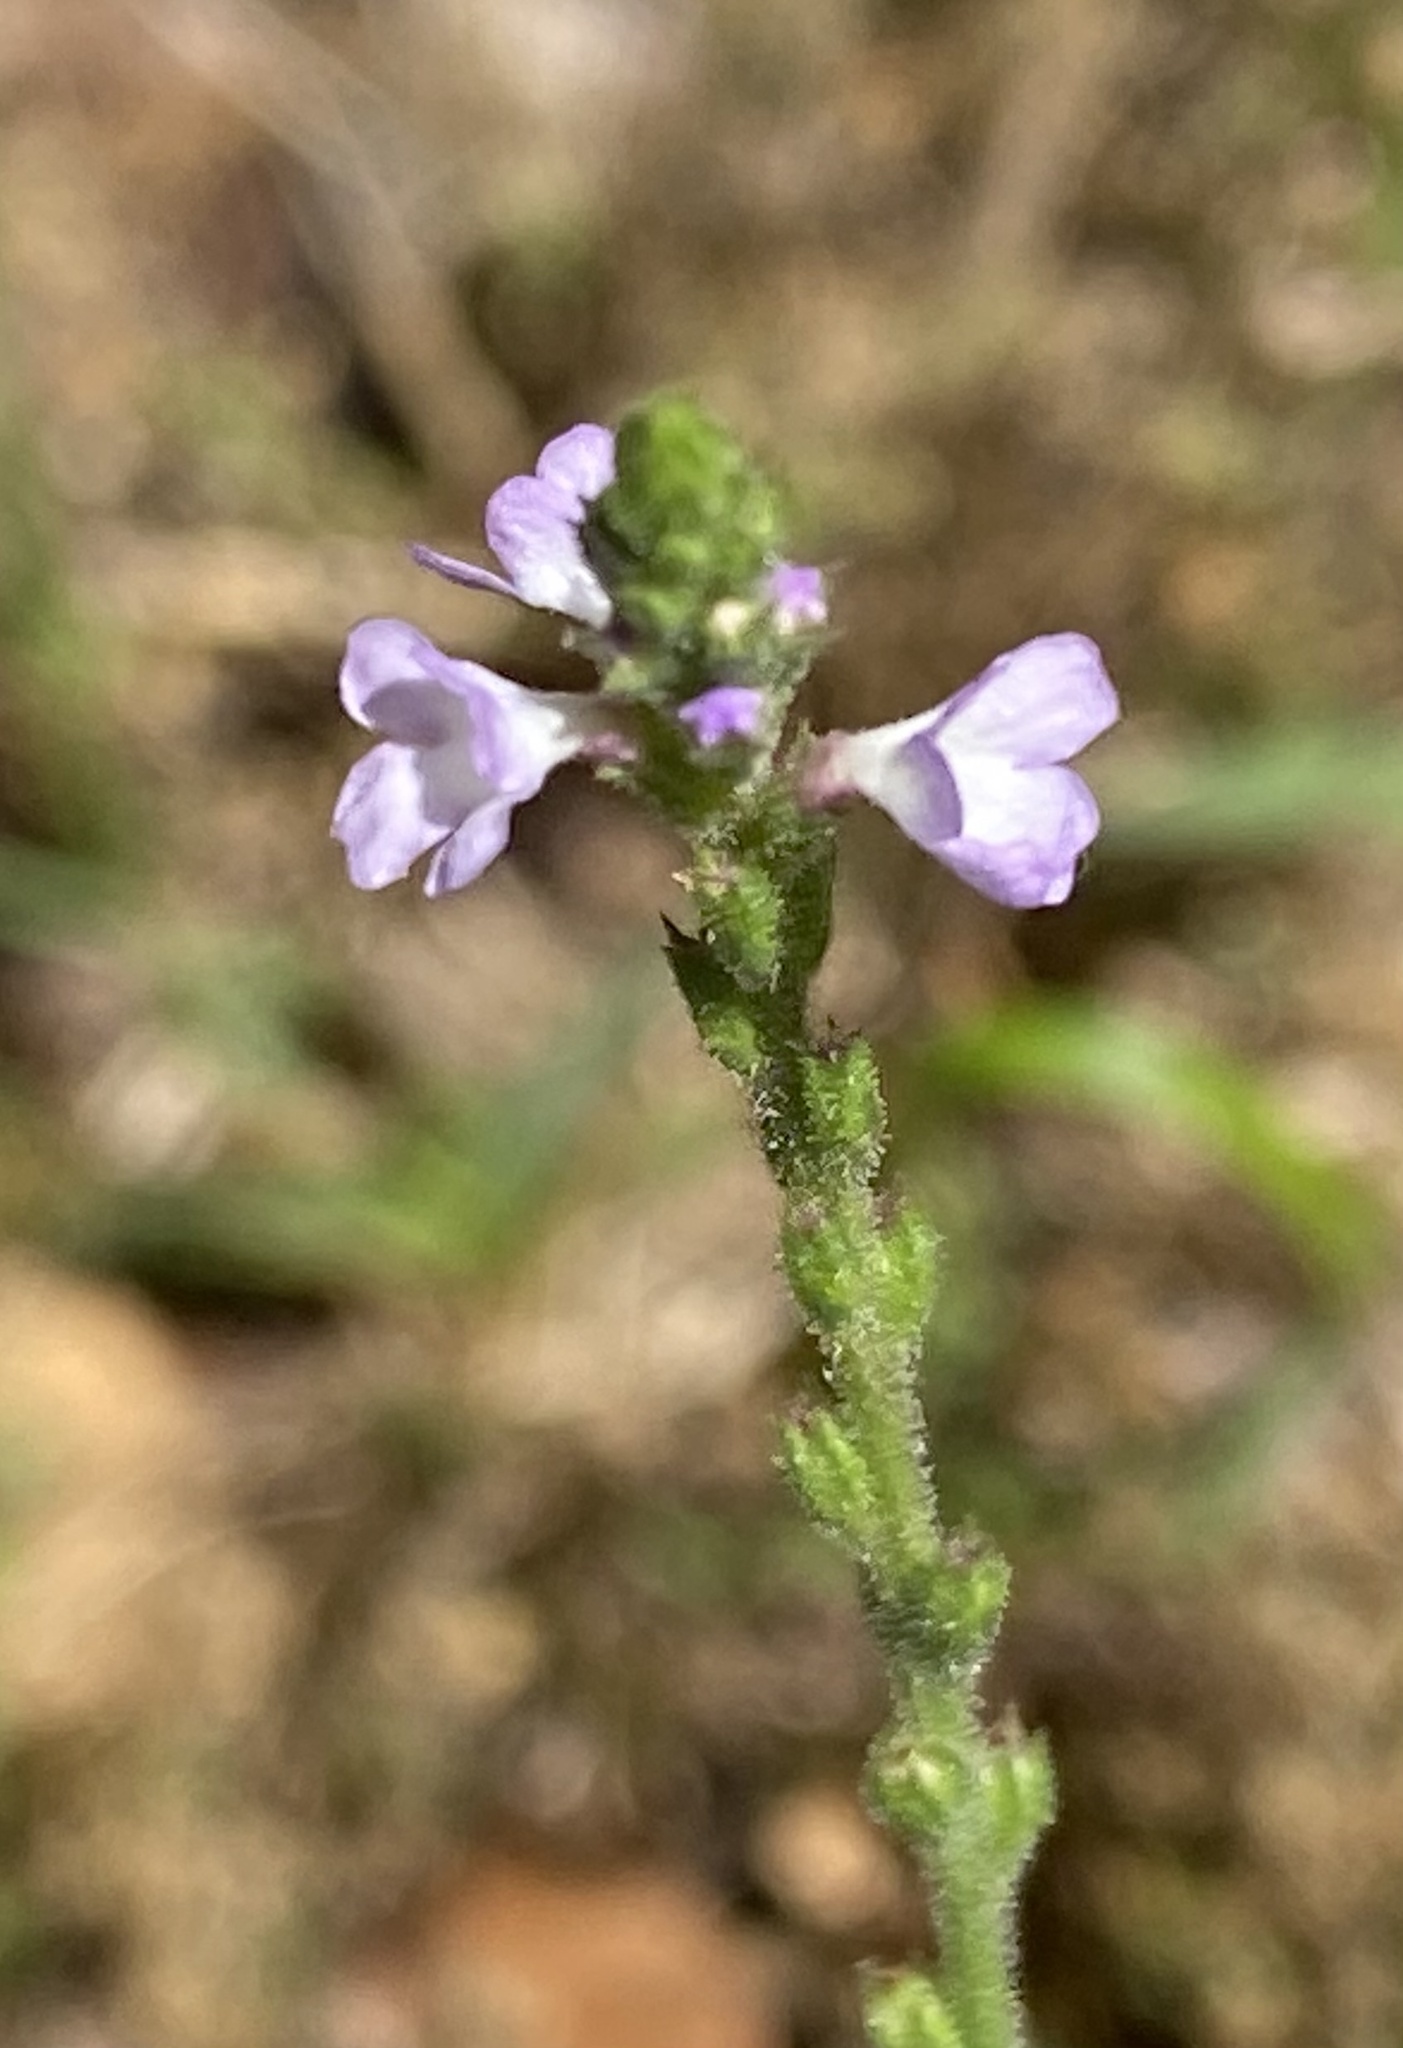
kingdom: Plantae
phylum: Tracheophyta
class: Magnoliopsida
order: Lamiales
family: Verbenaceae
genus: Verbena
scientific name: Verbena officinalis
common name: Vervain
